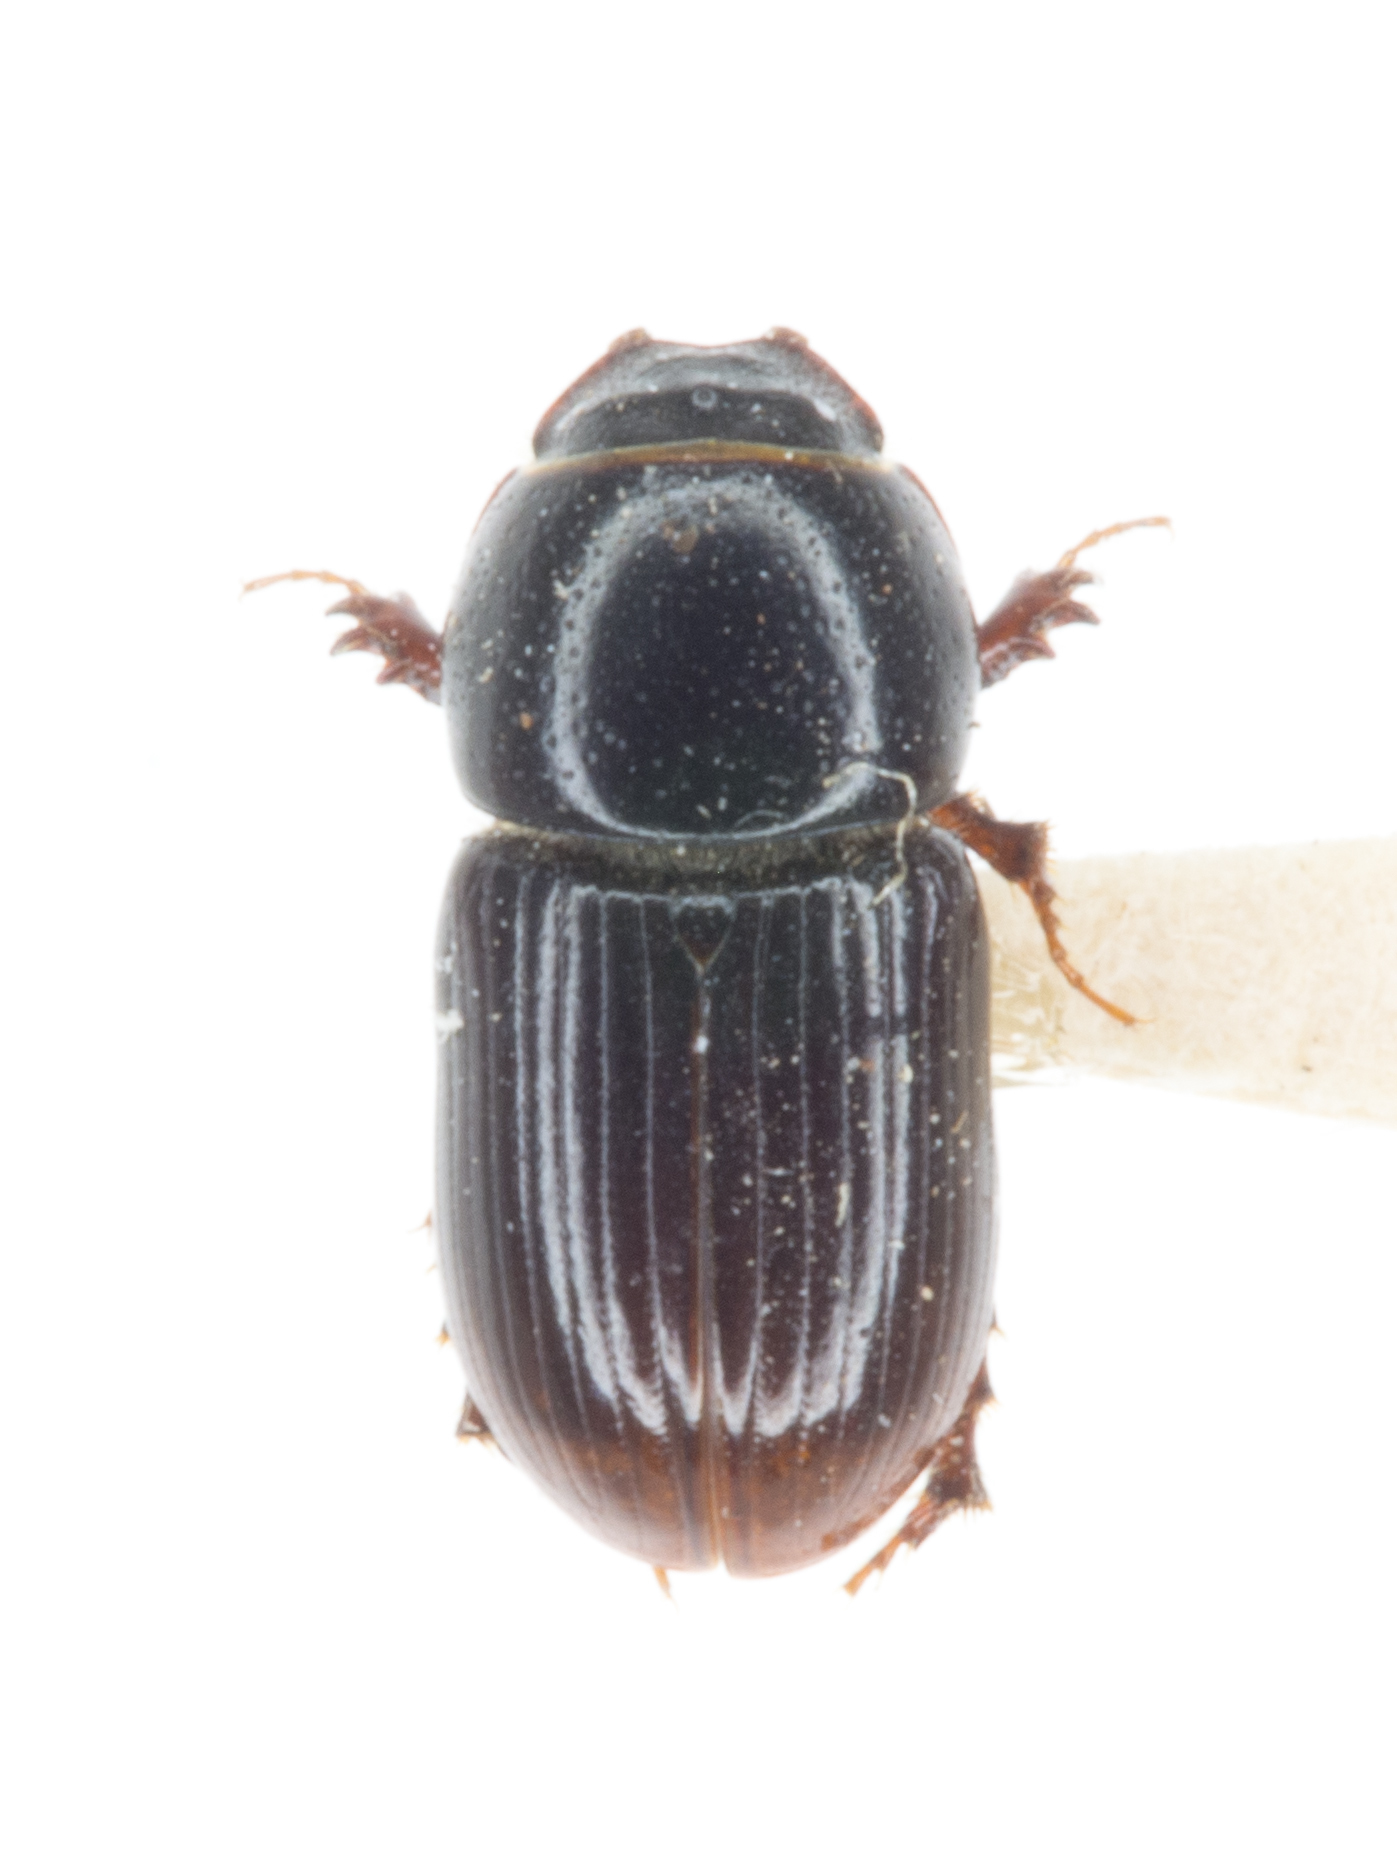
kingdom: Animalia
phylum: Arthropoda
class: Insecta
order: Coleoptera
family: Scarabaeidae
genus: Calamosternus
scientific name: Calamosternus granarius
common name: Granular small dung beetle
